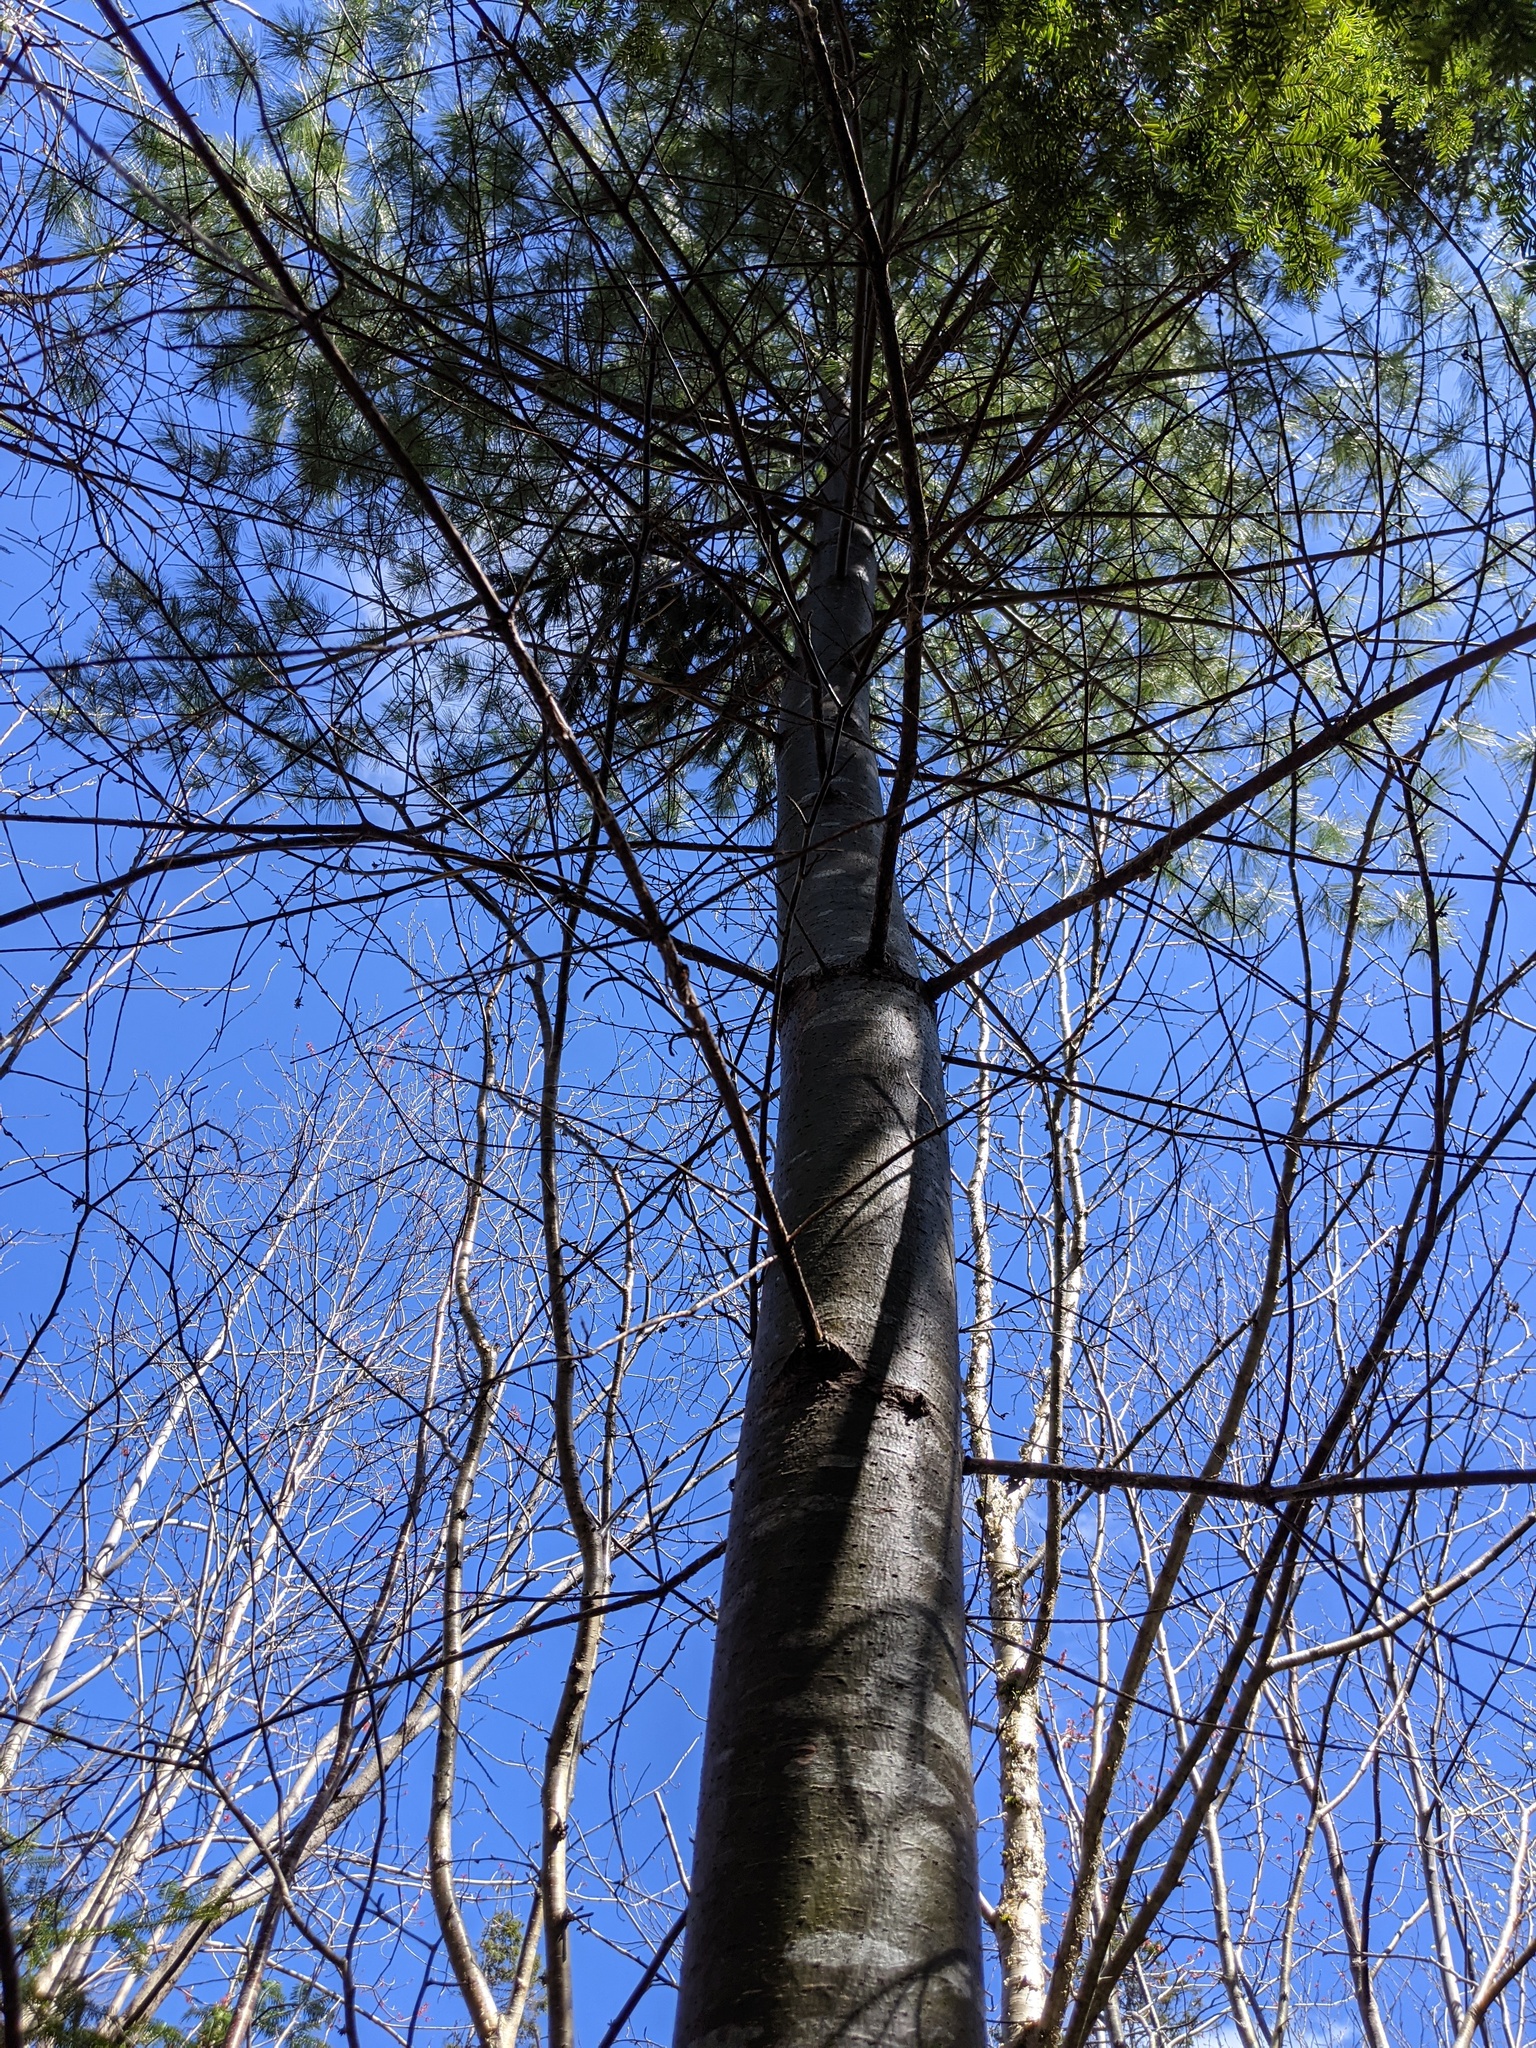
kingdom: Plantae
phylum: Tracheophyta
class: Pinopsida
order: Pinales
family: Pinaceae
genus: Pinus
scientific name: Pinus strobus
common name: Weymouth pine
